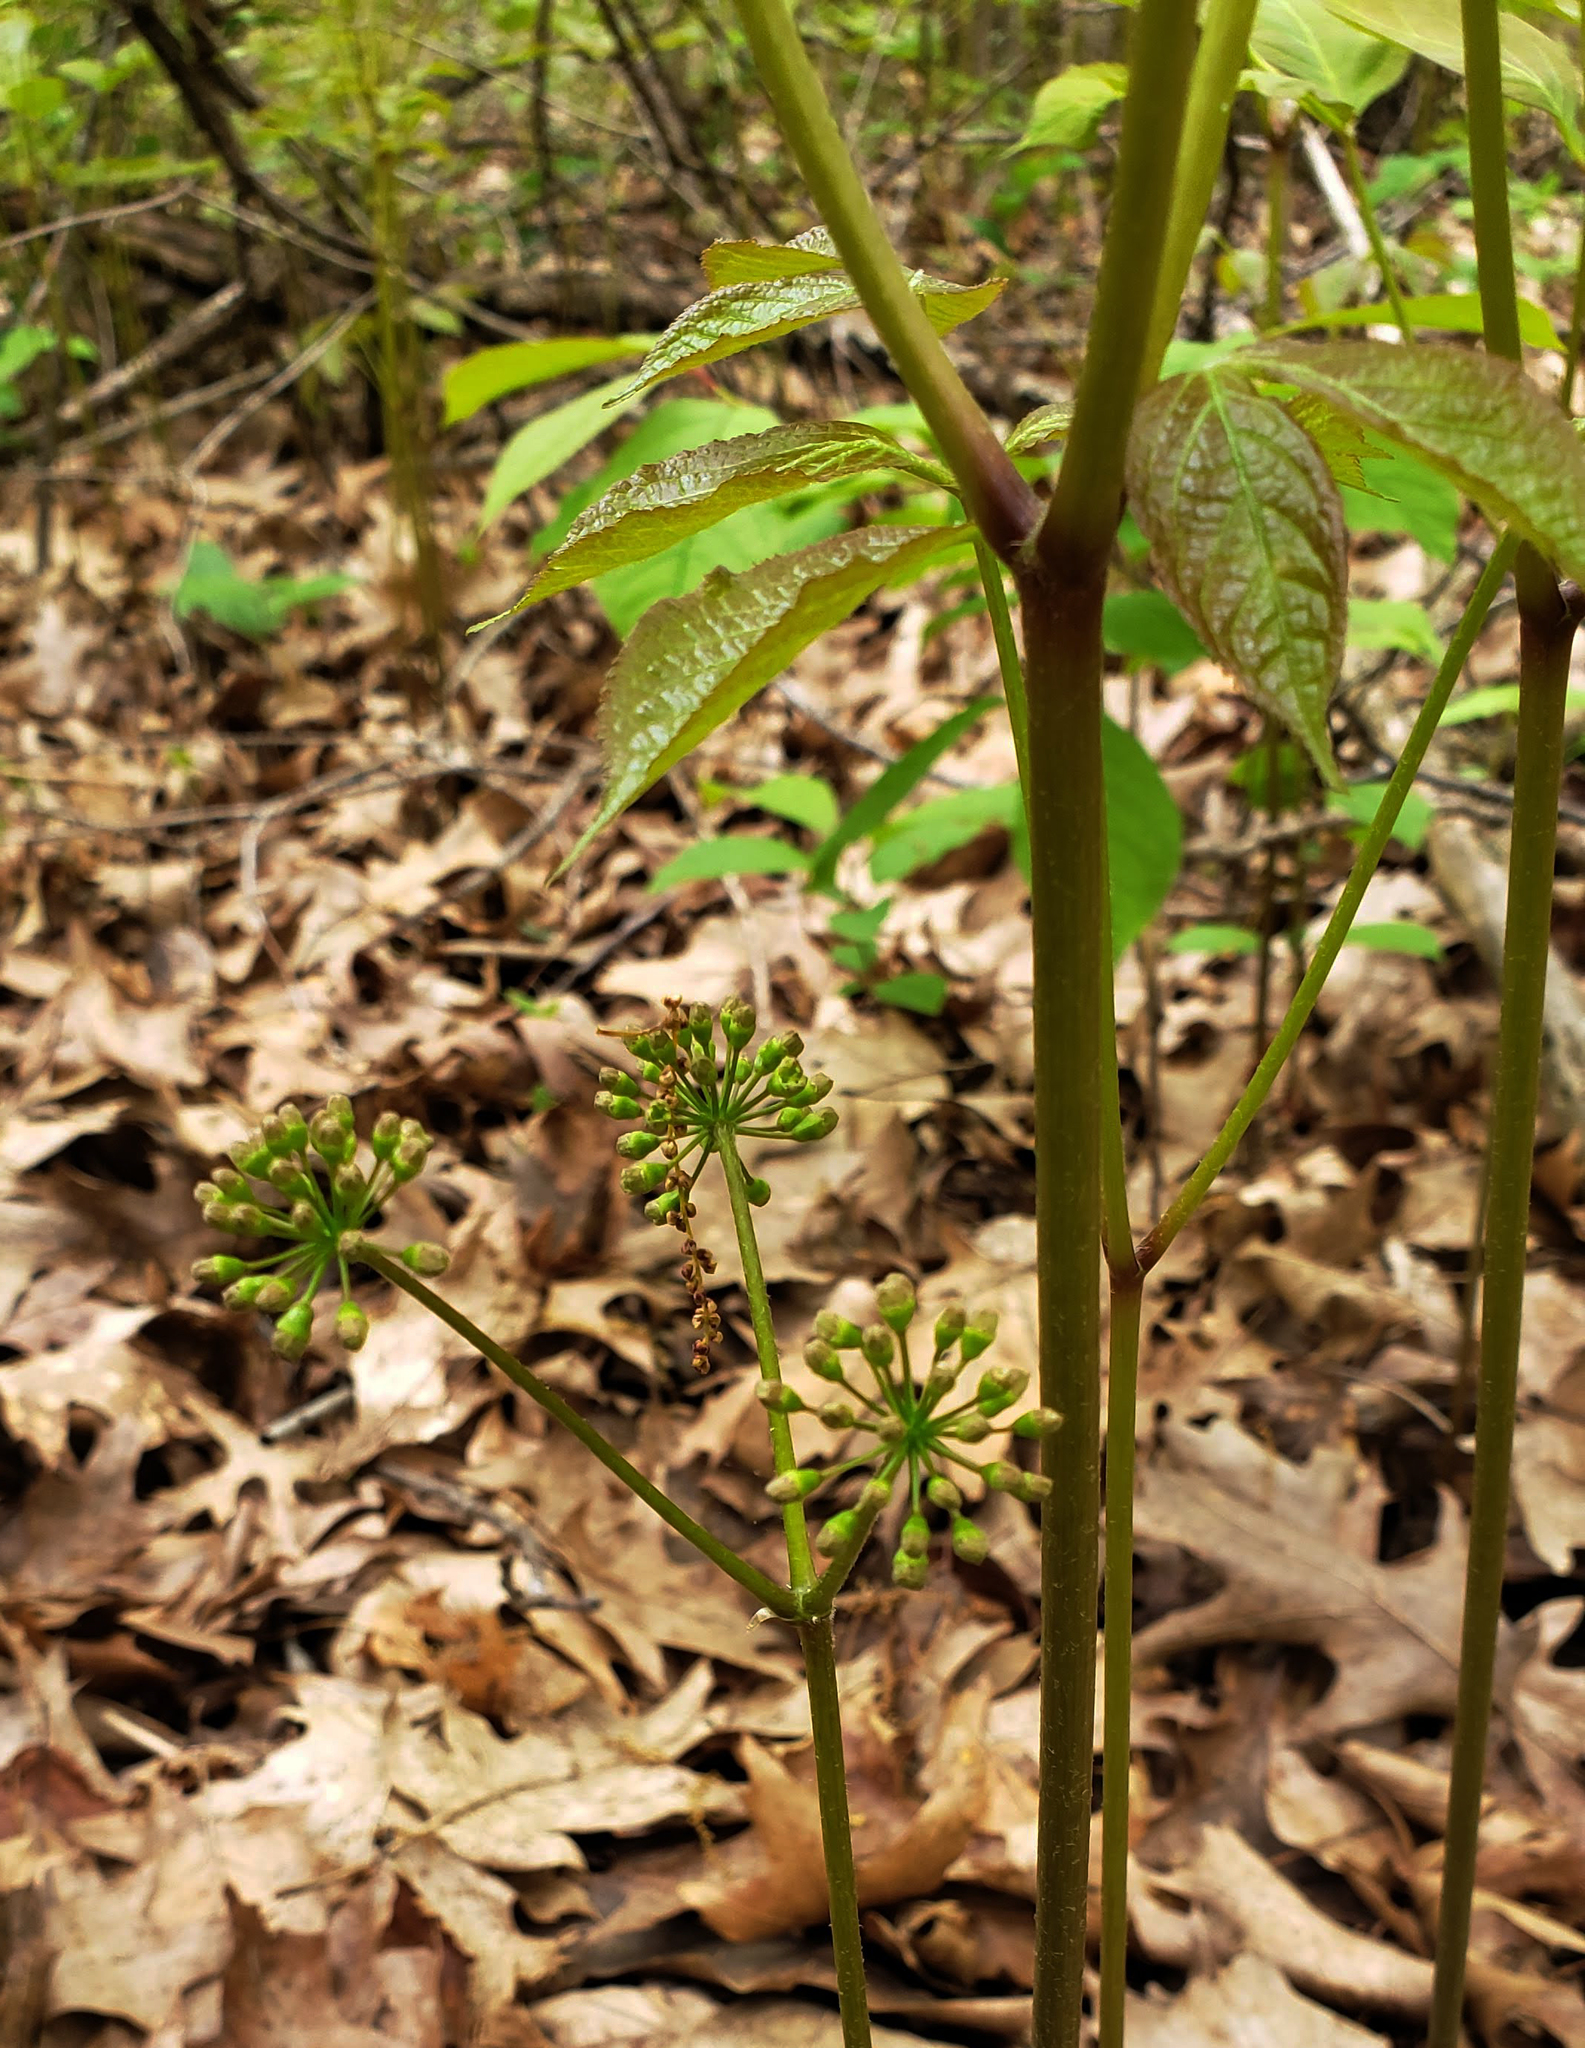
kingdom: Plantae
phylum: Tracheophyta
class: Magnoliopsida
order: Apiales
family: Araliaceae
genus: Aralia
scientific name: Aralia nudicaulis
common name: Wild sarsaparilla
